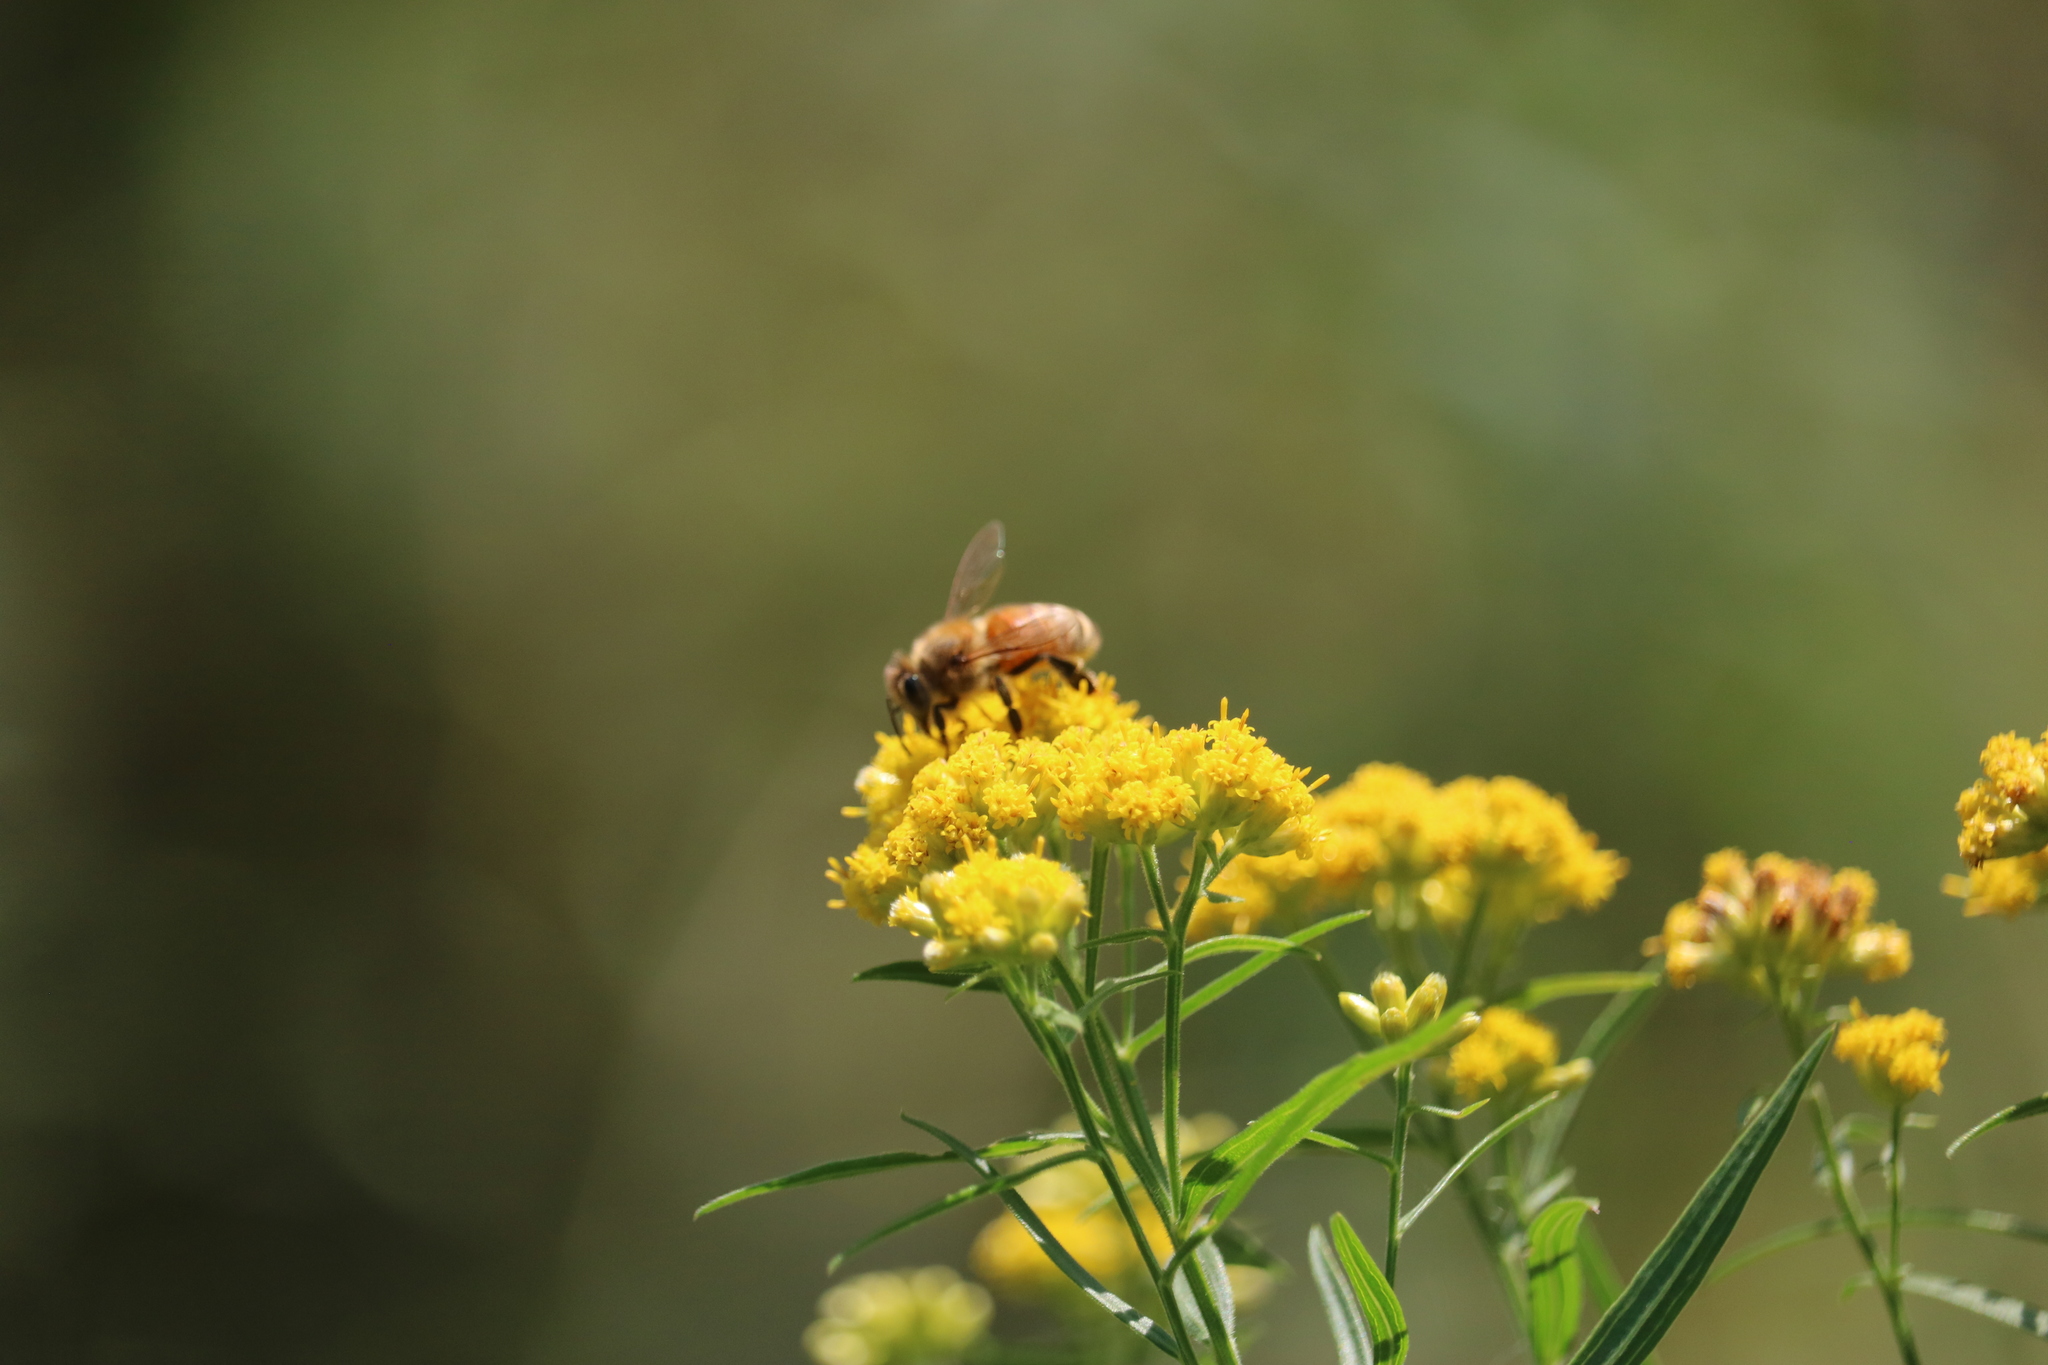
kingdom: Animalia
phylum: Arthropoda
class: Insecta
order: Hymenoptera
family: Apidae
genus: Apis
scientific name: Apis mellifera
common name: Honey bee
